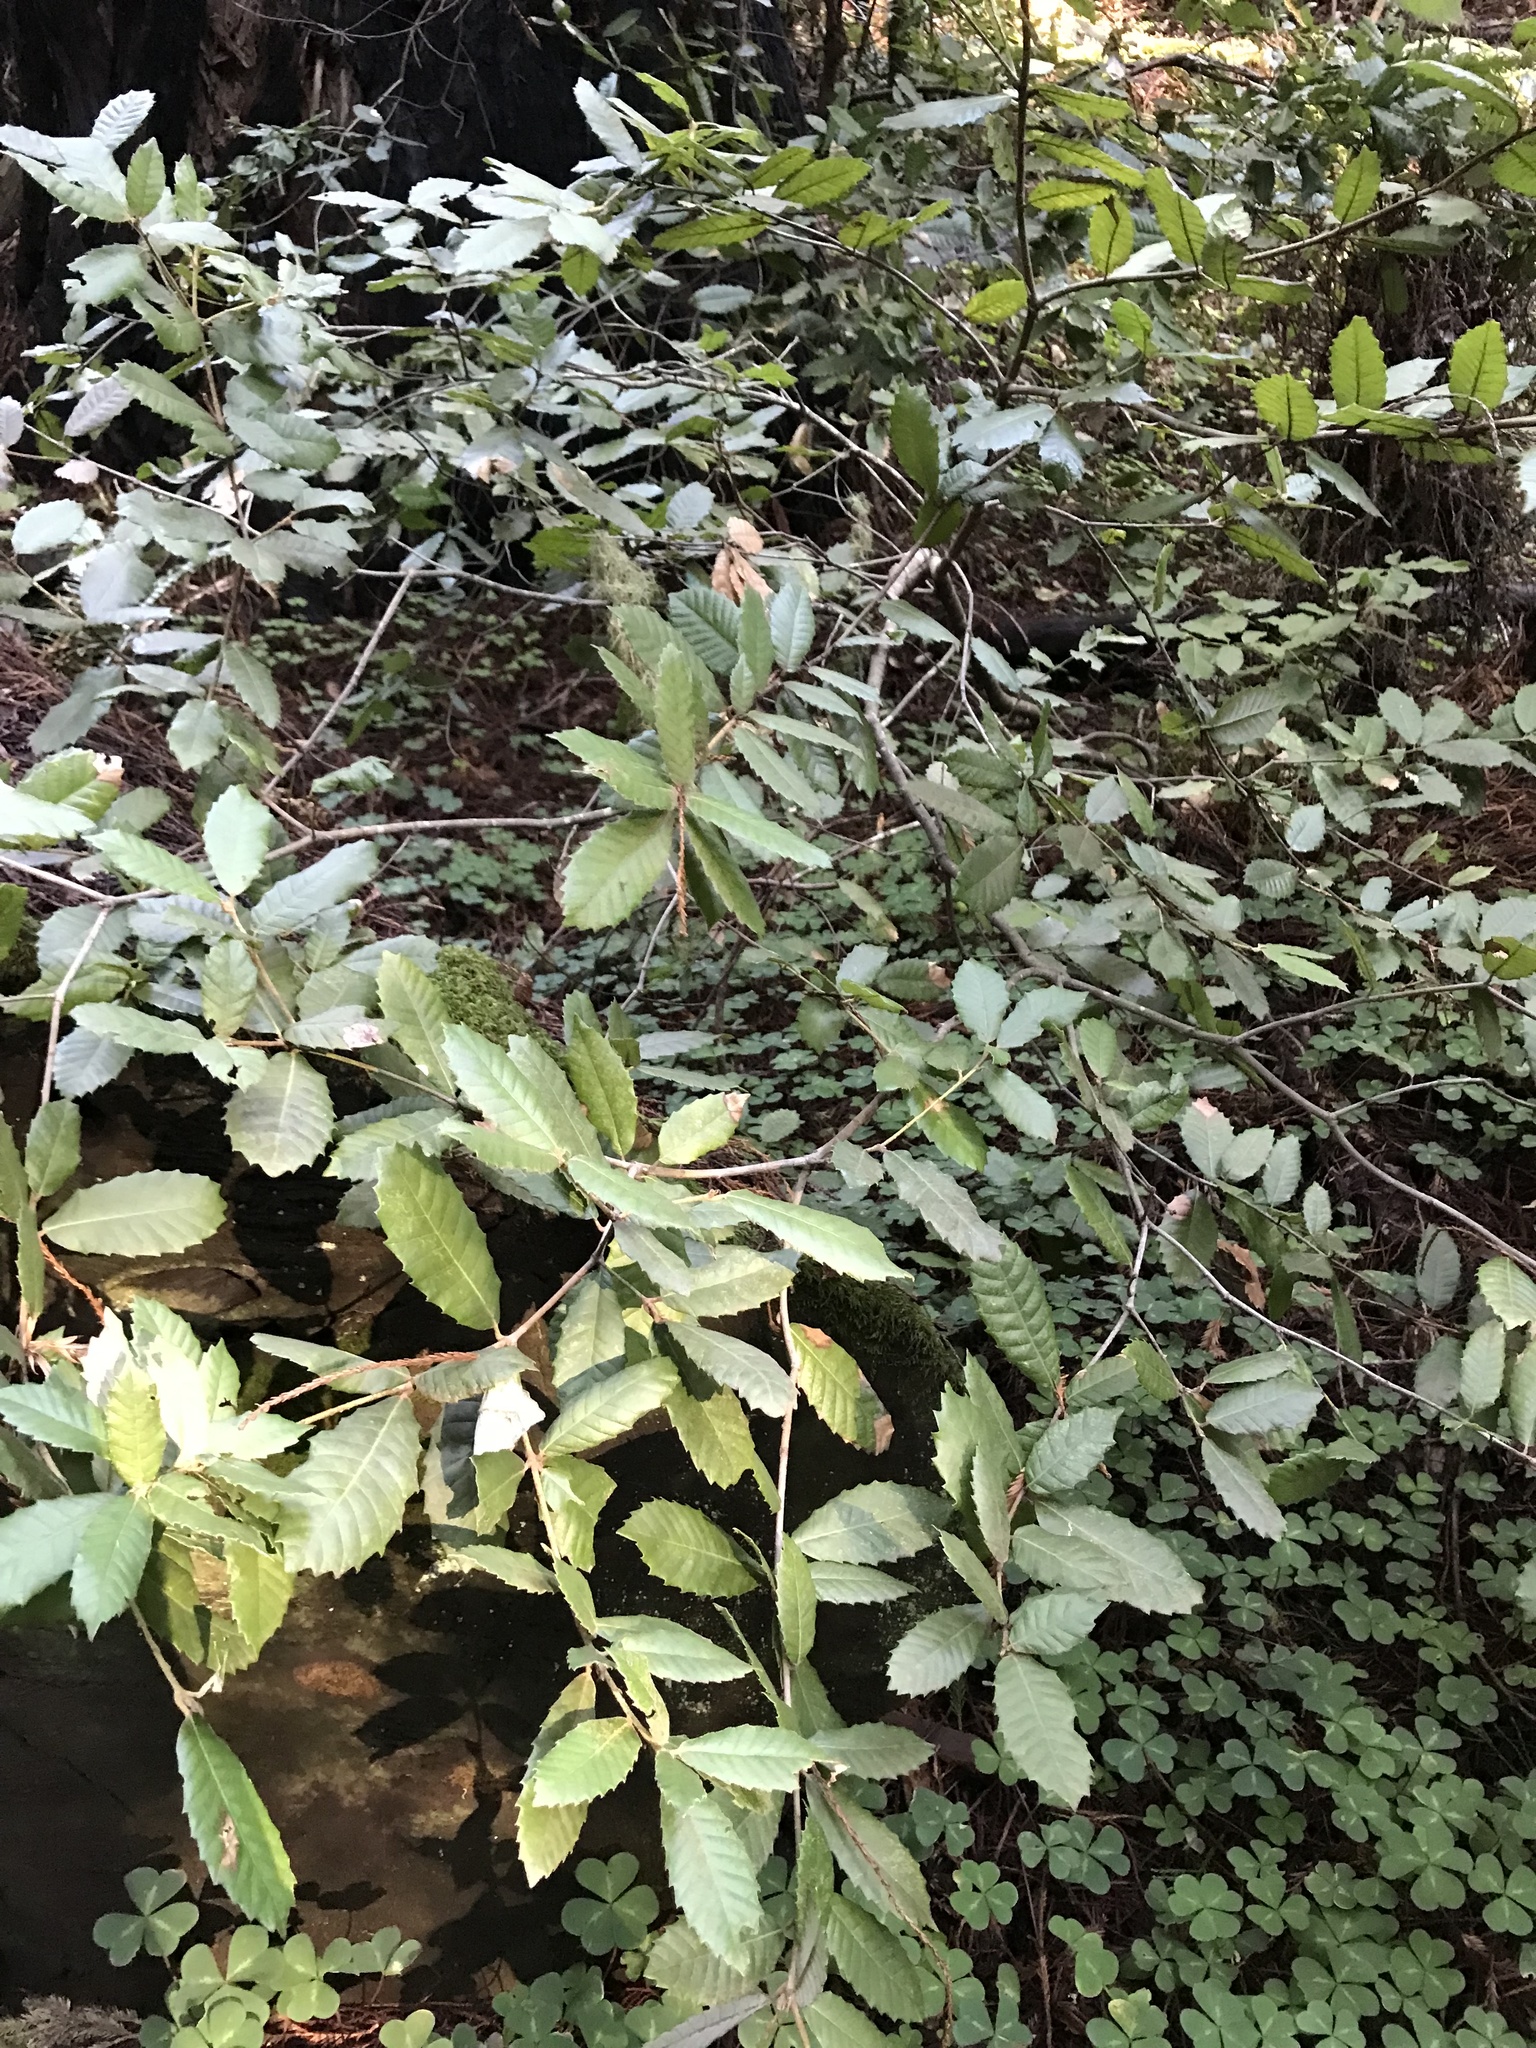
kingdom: Plantae
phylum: Tracheophyta
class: Magnoliopsida
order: Fagales
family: Fagaceae
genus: Notholithocarpus
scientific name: Notholithocarpus densiflorus
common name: Tan bark oak
